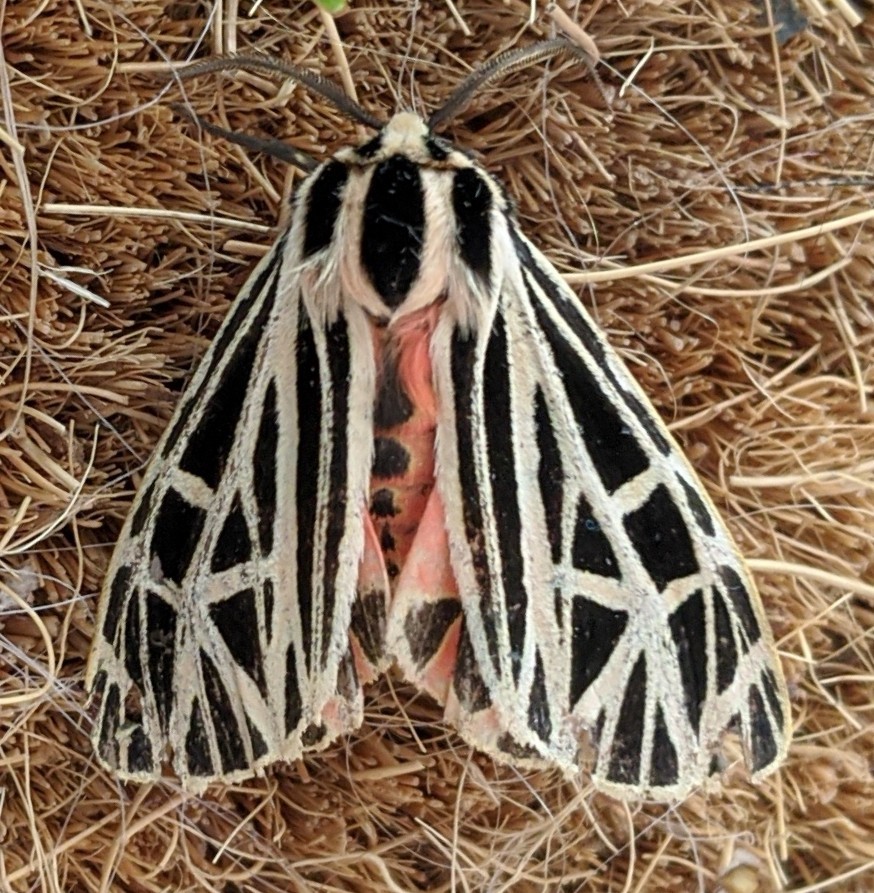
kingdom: Animalia
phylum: Arthropoda
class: Insecta
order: Lepidoptera
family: Erebidae
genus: Grammia
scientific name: Grammia virgo
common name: Virgin tiger moth
